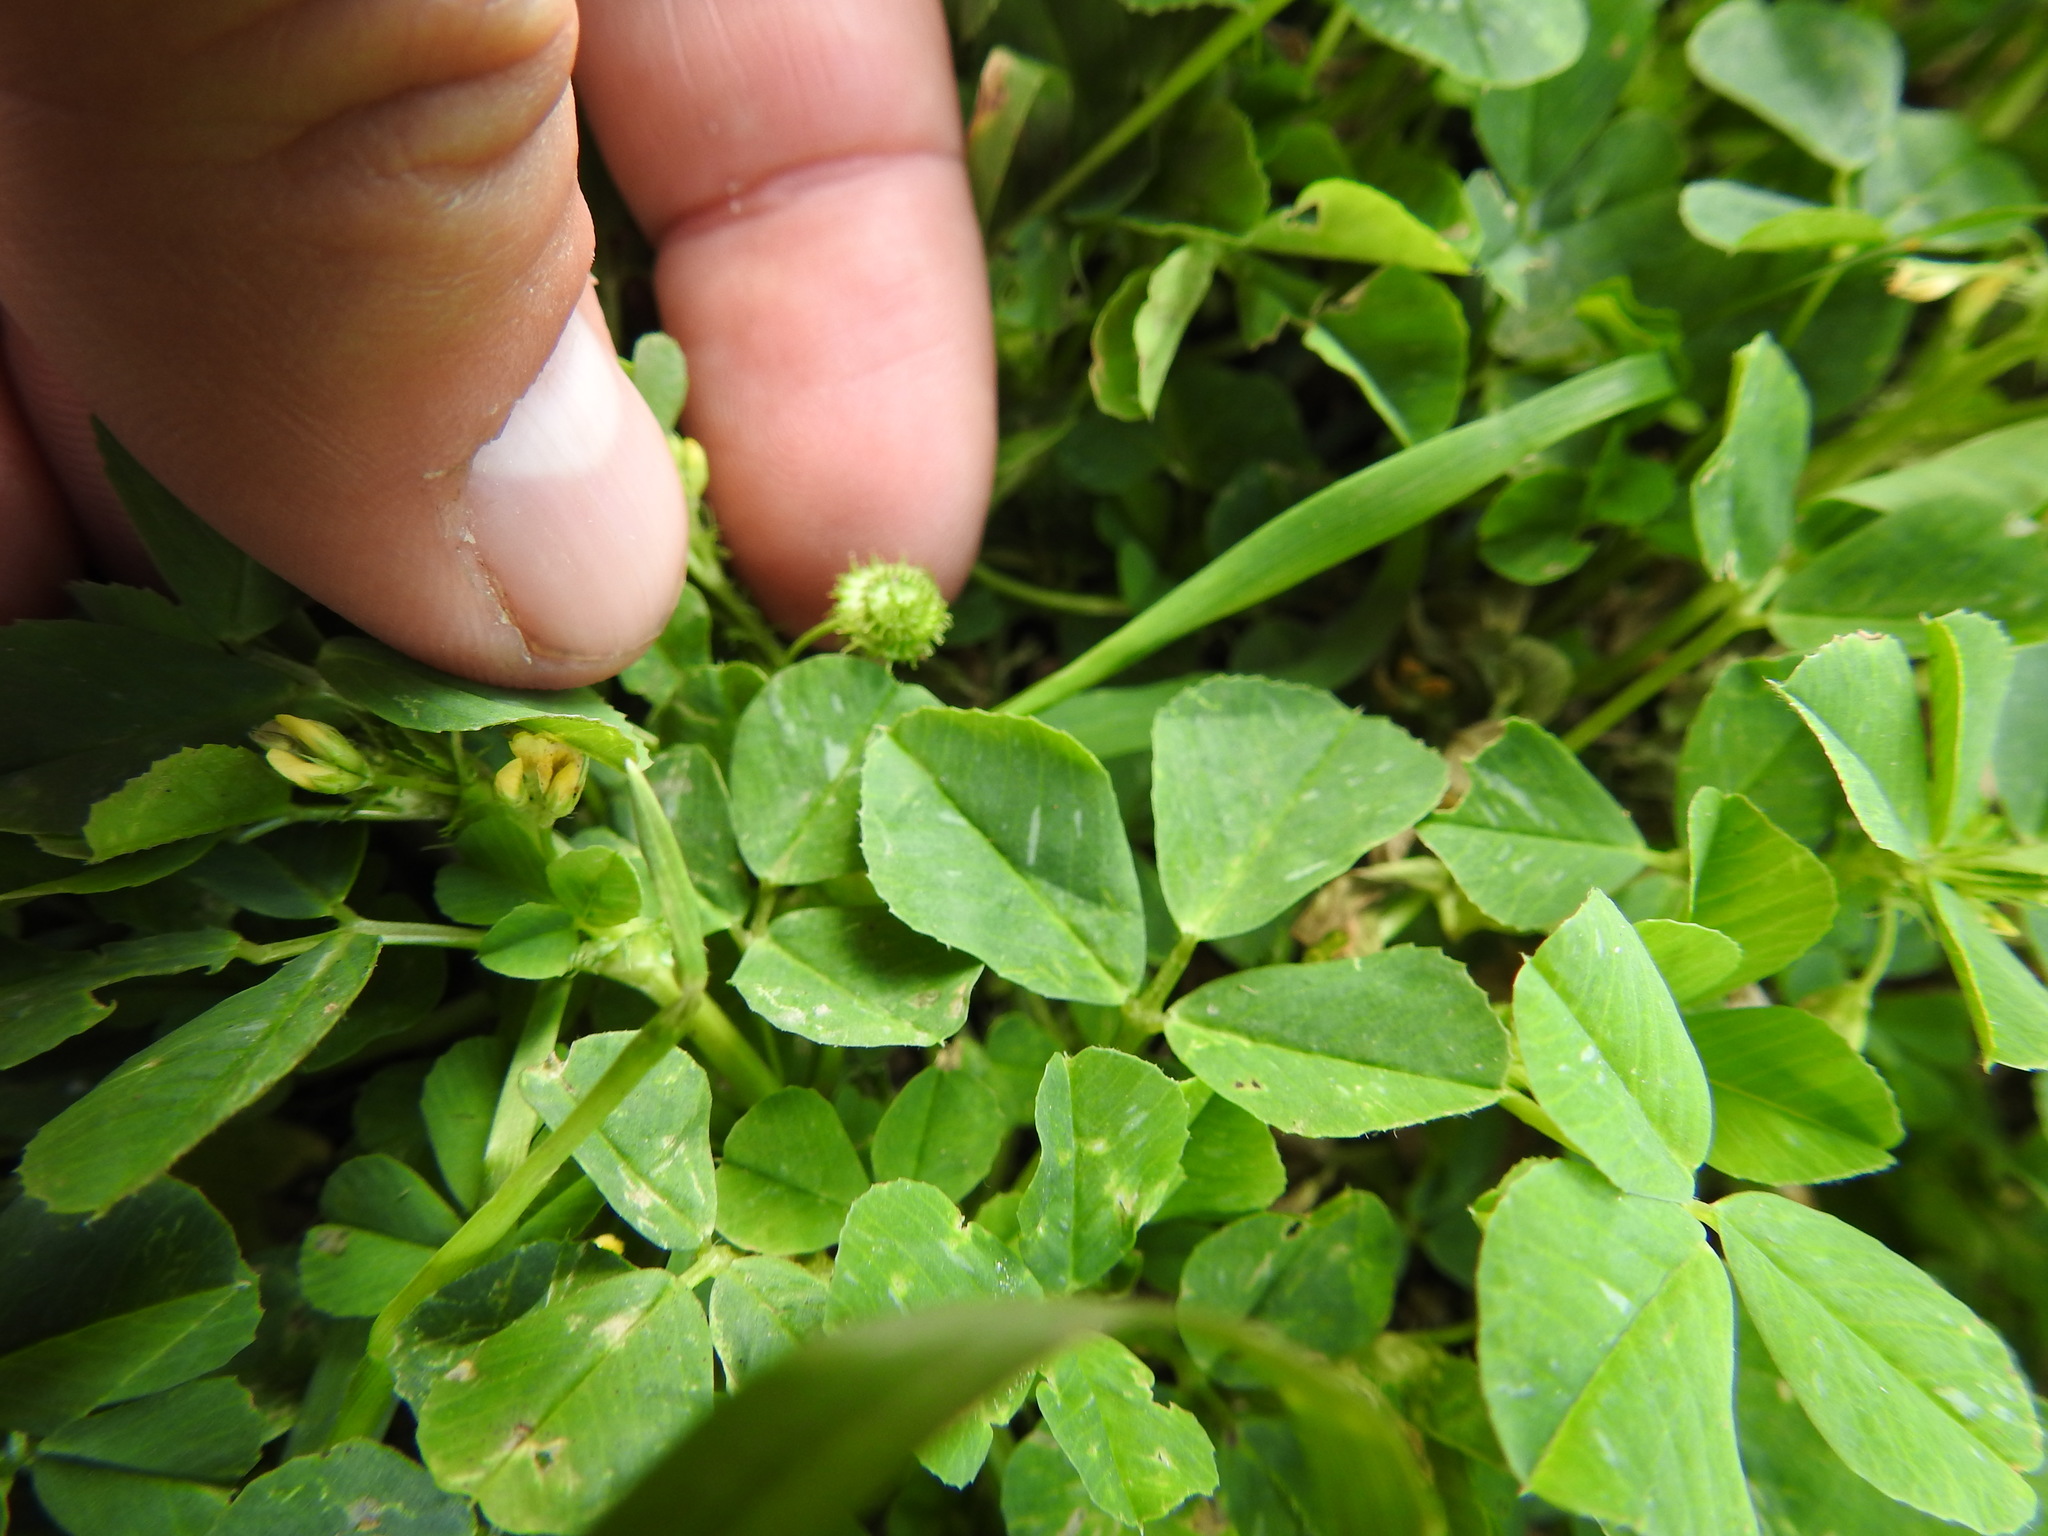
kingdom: Plantae
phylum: Tracheophyta
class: Magnoliopsida
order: Fabales
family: Fabaceae
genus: Medicago
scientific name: Medicago polymorpha
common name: Burclover
